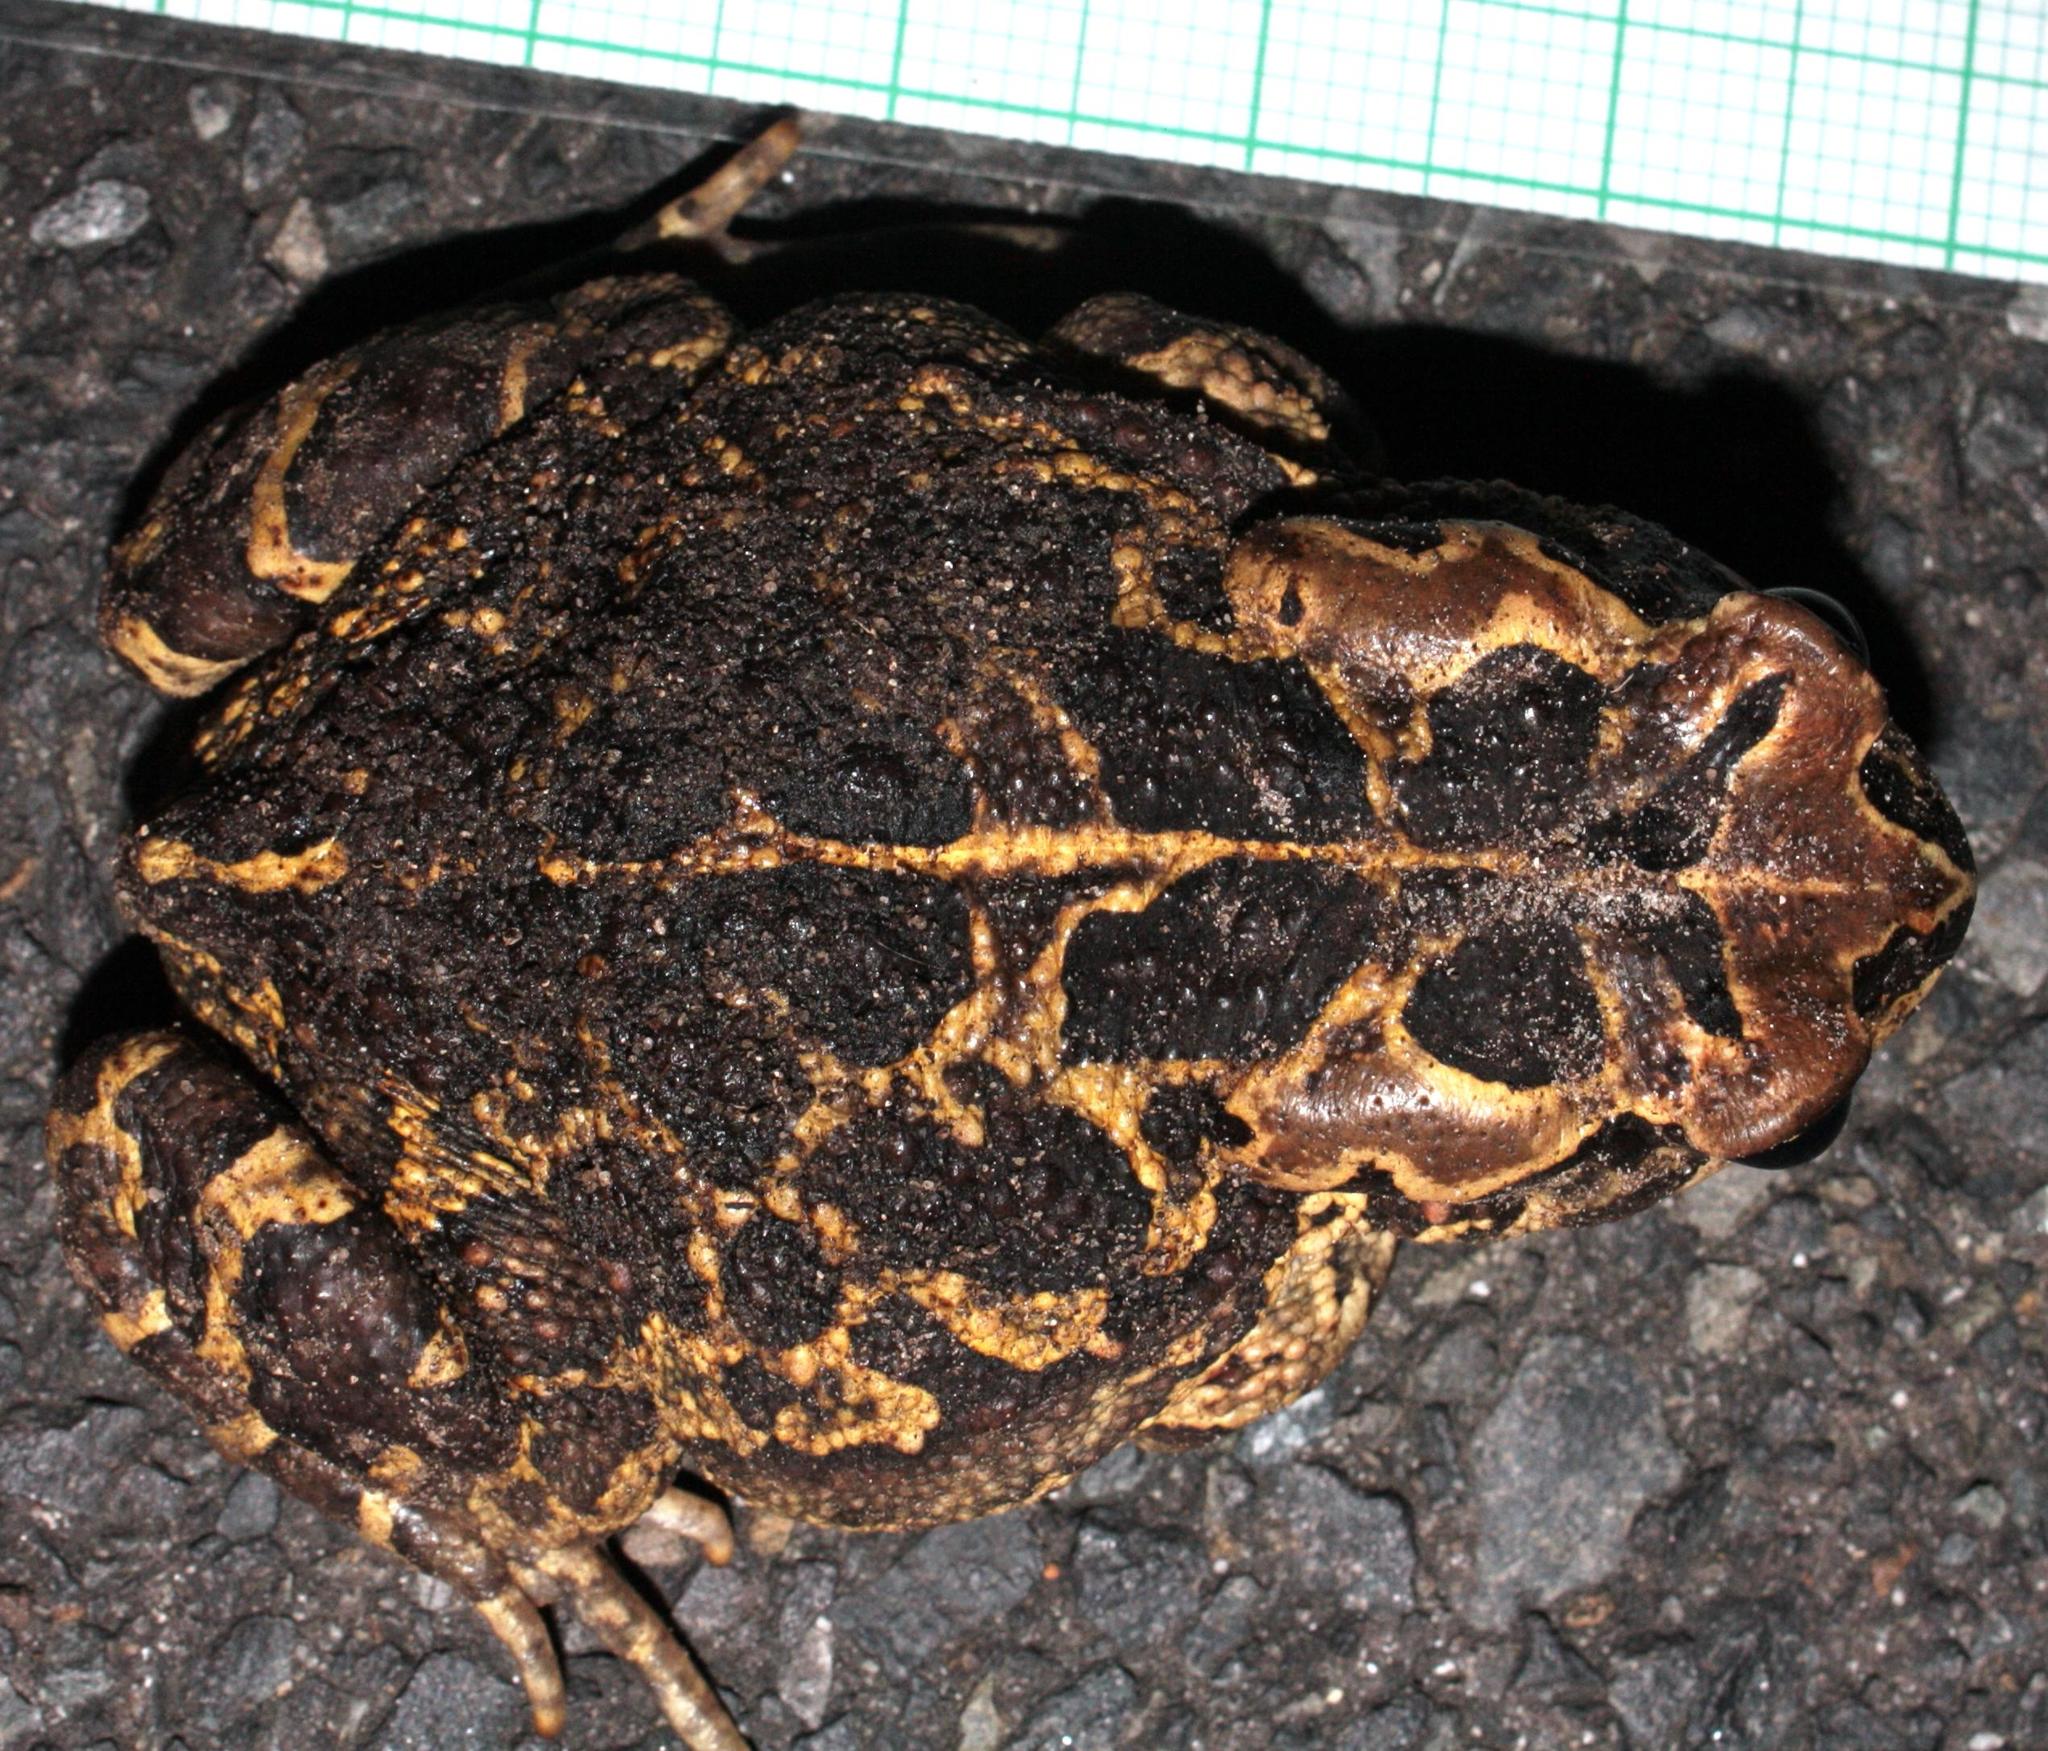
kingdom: Animalia
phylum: Chordata
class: Amphibia
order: Anura
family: Bufonidae
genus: Sclerophrys
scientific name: Sclerophrys pantherina
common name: Panther toad
